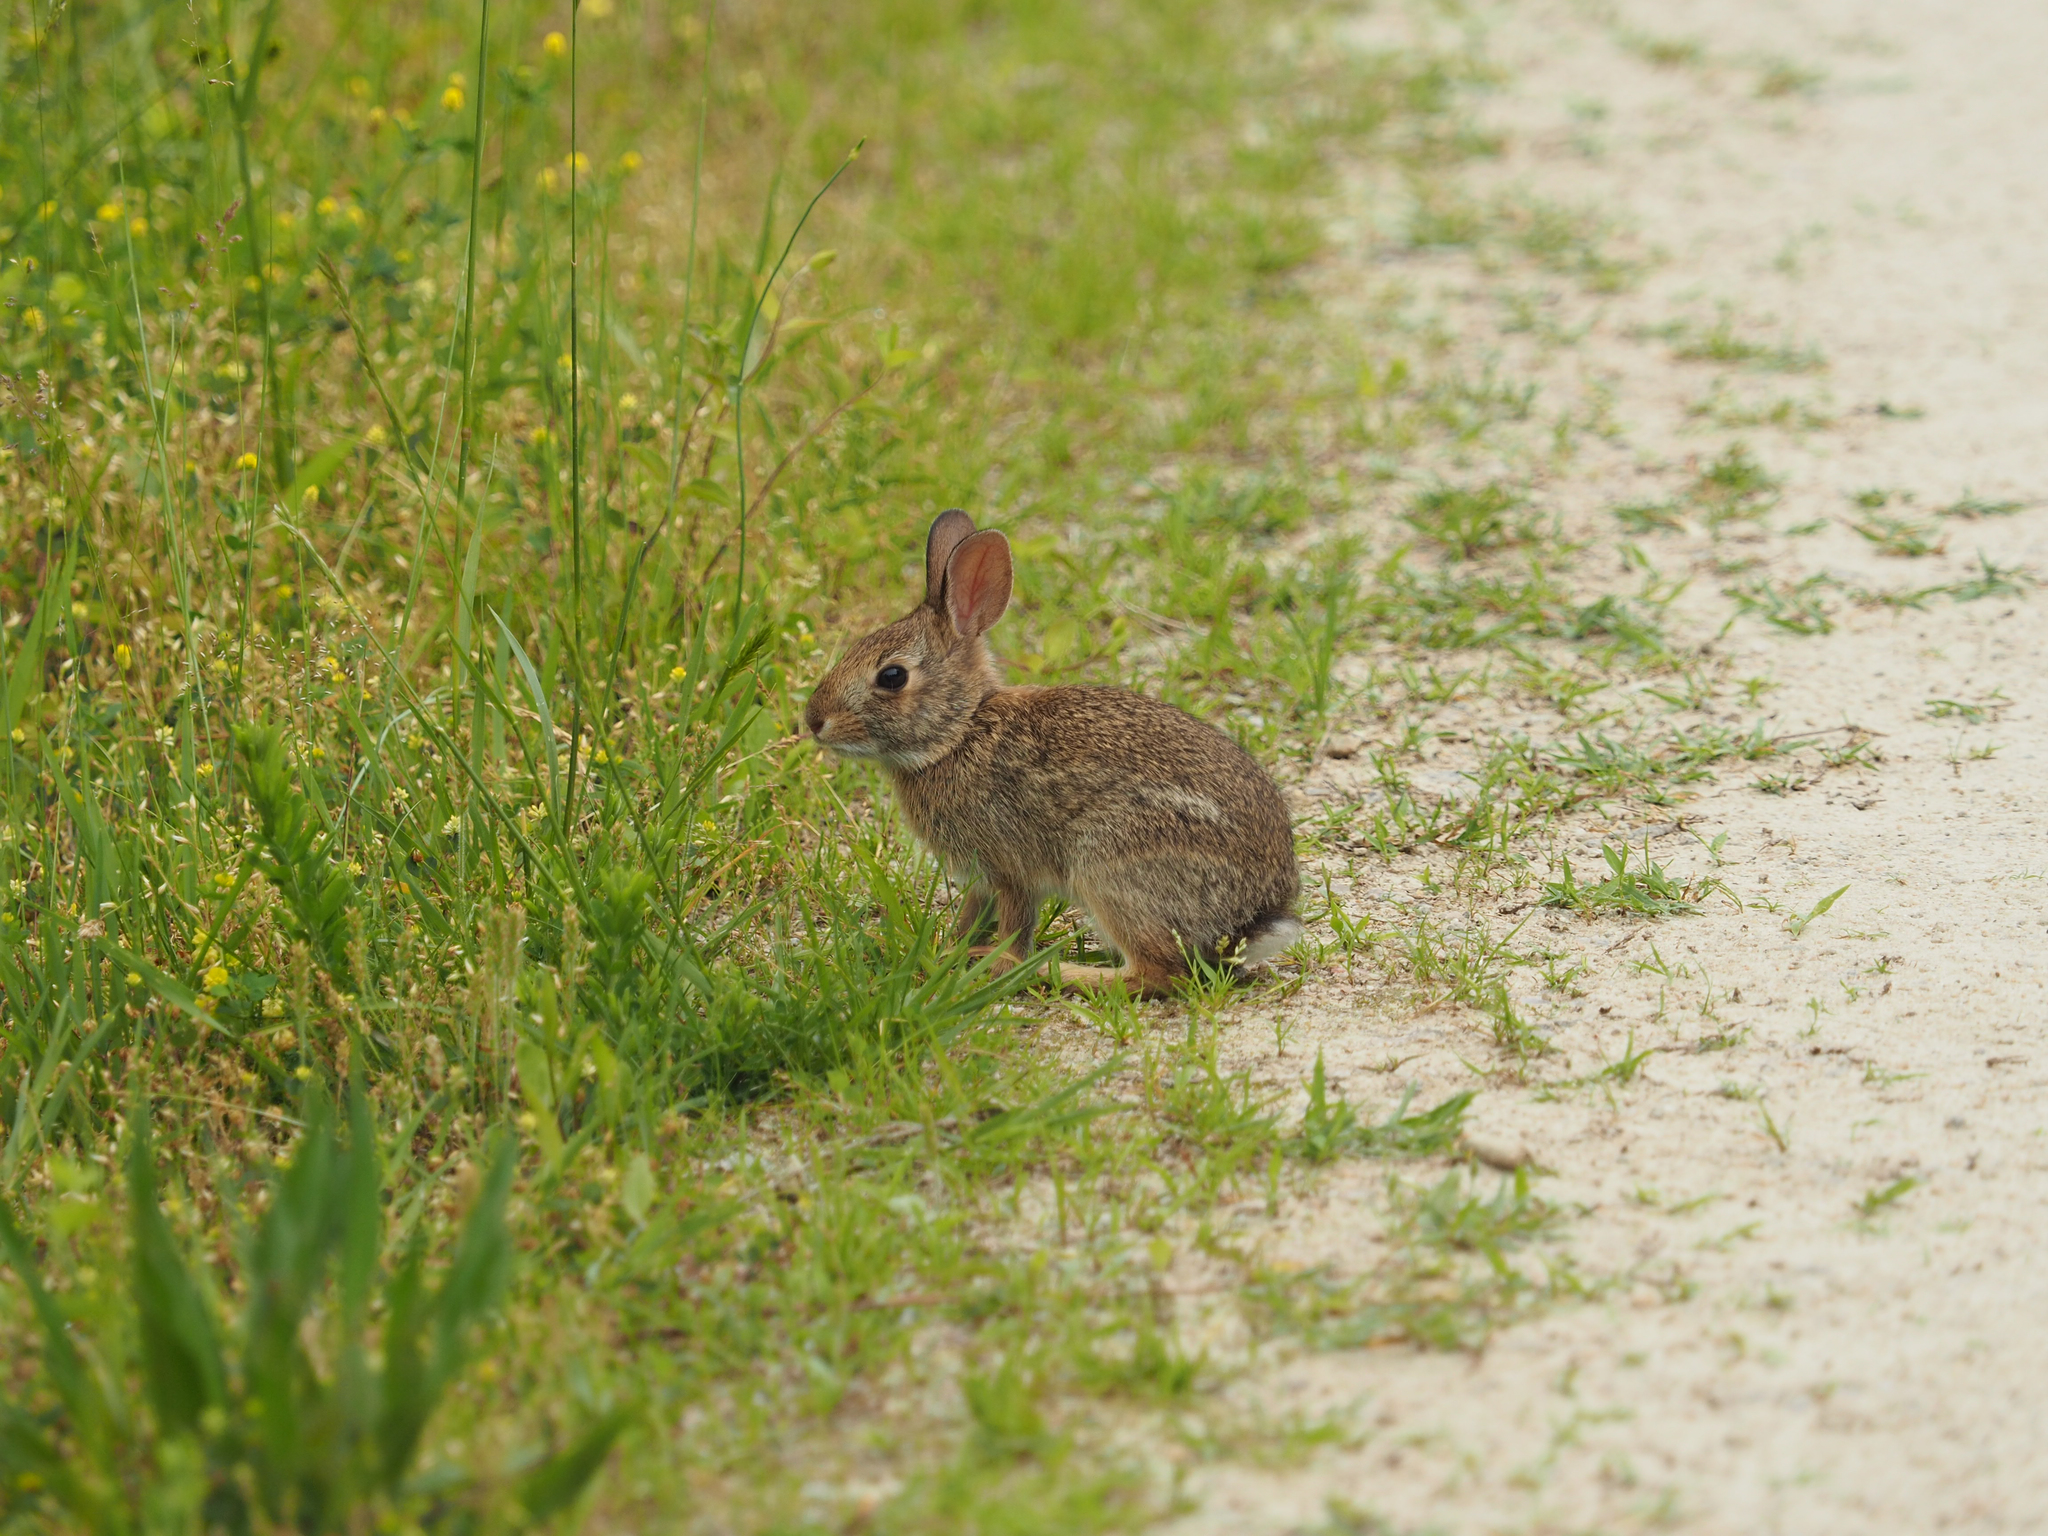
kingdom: Animalia
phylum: Chordata
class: Mammalia
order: Lagomorpha
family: Leporidae
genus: Sylvilagus
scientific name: Sylvilagus floridanus
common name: Eastern cottontail
